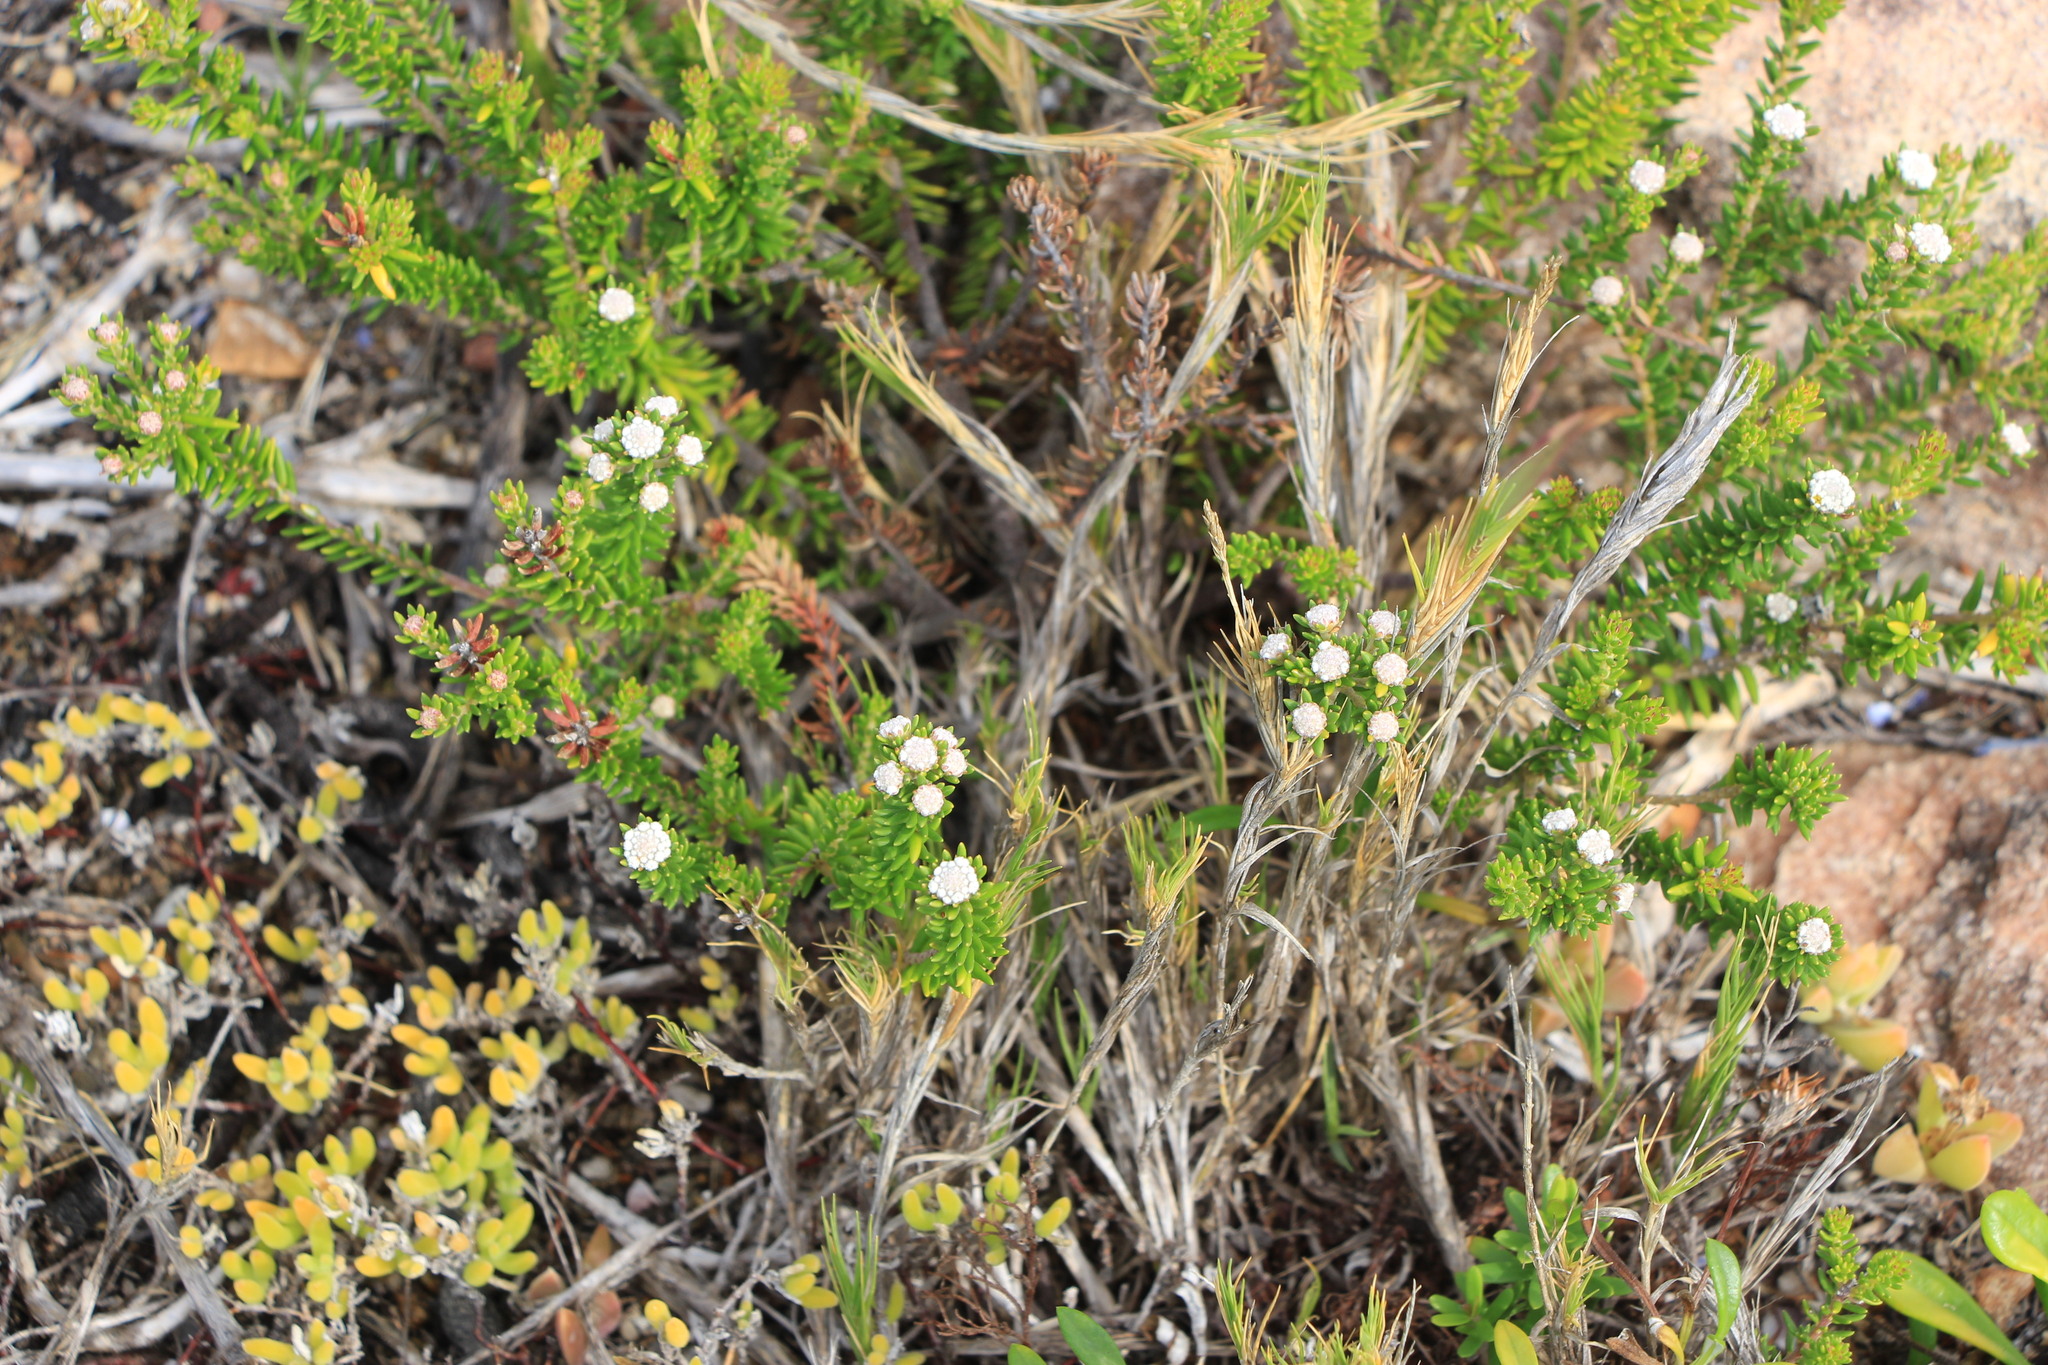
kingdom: Plantae
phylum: Tracheophyta
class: Magnoliopsida
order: Rosales
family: Rhamnaceae
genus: Phylica
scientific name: Phylica ericoides
